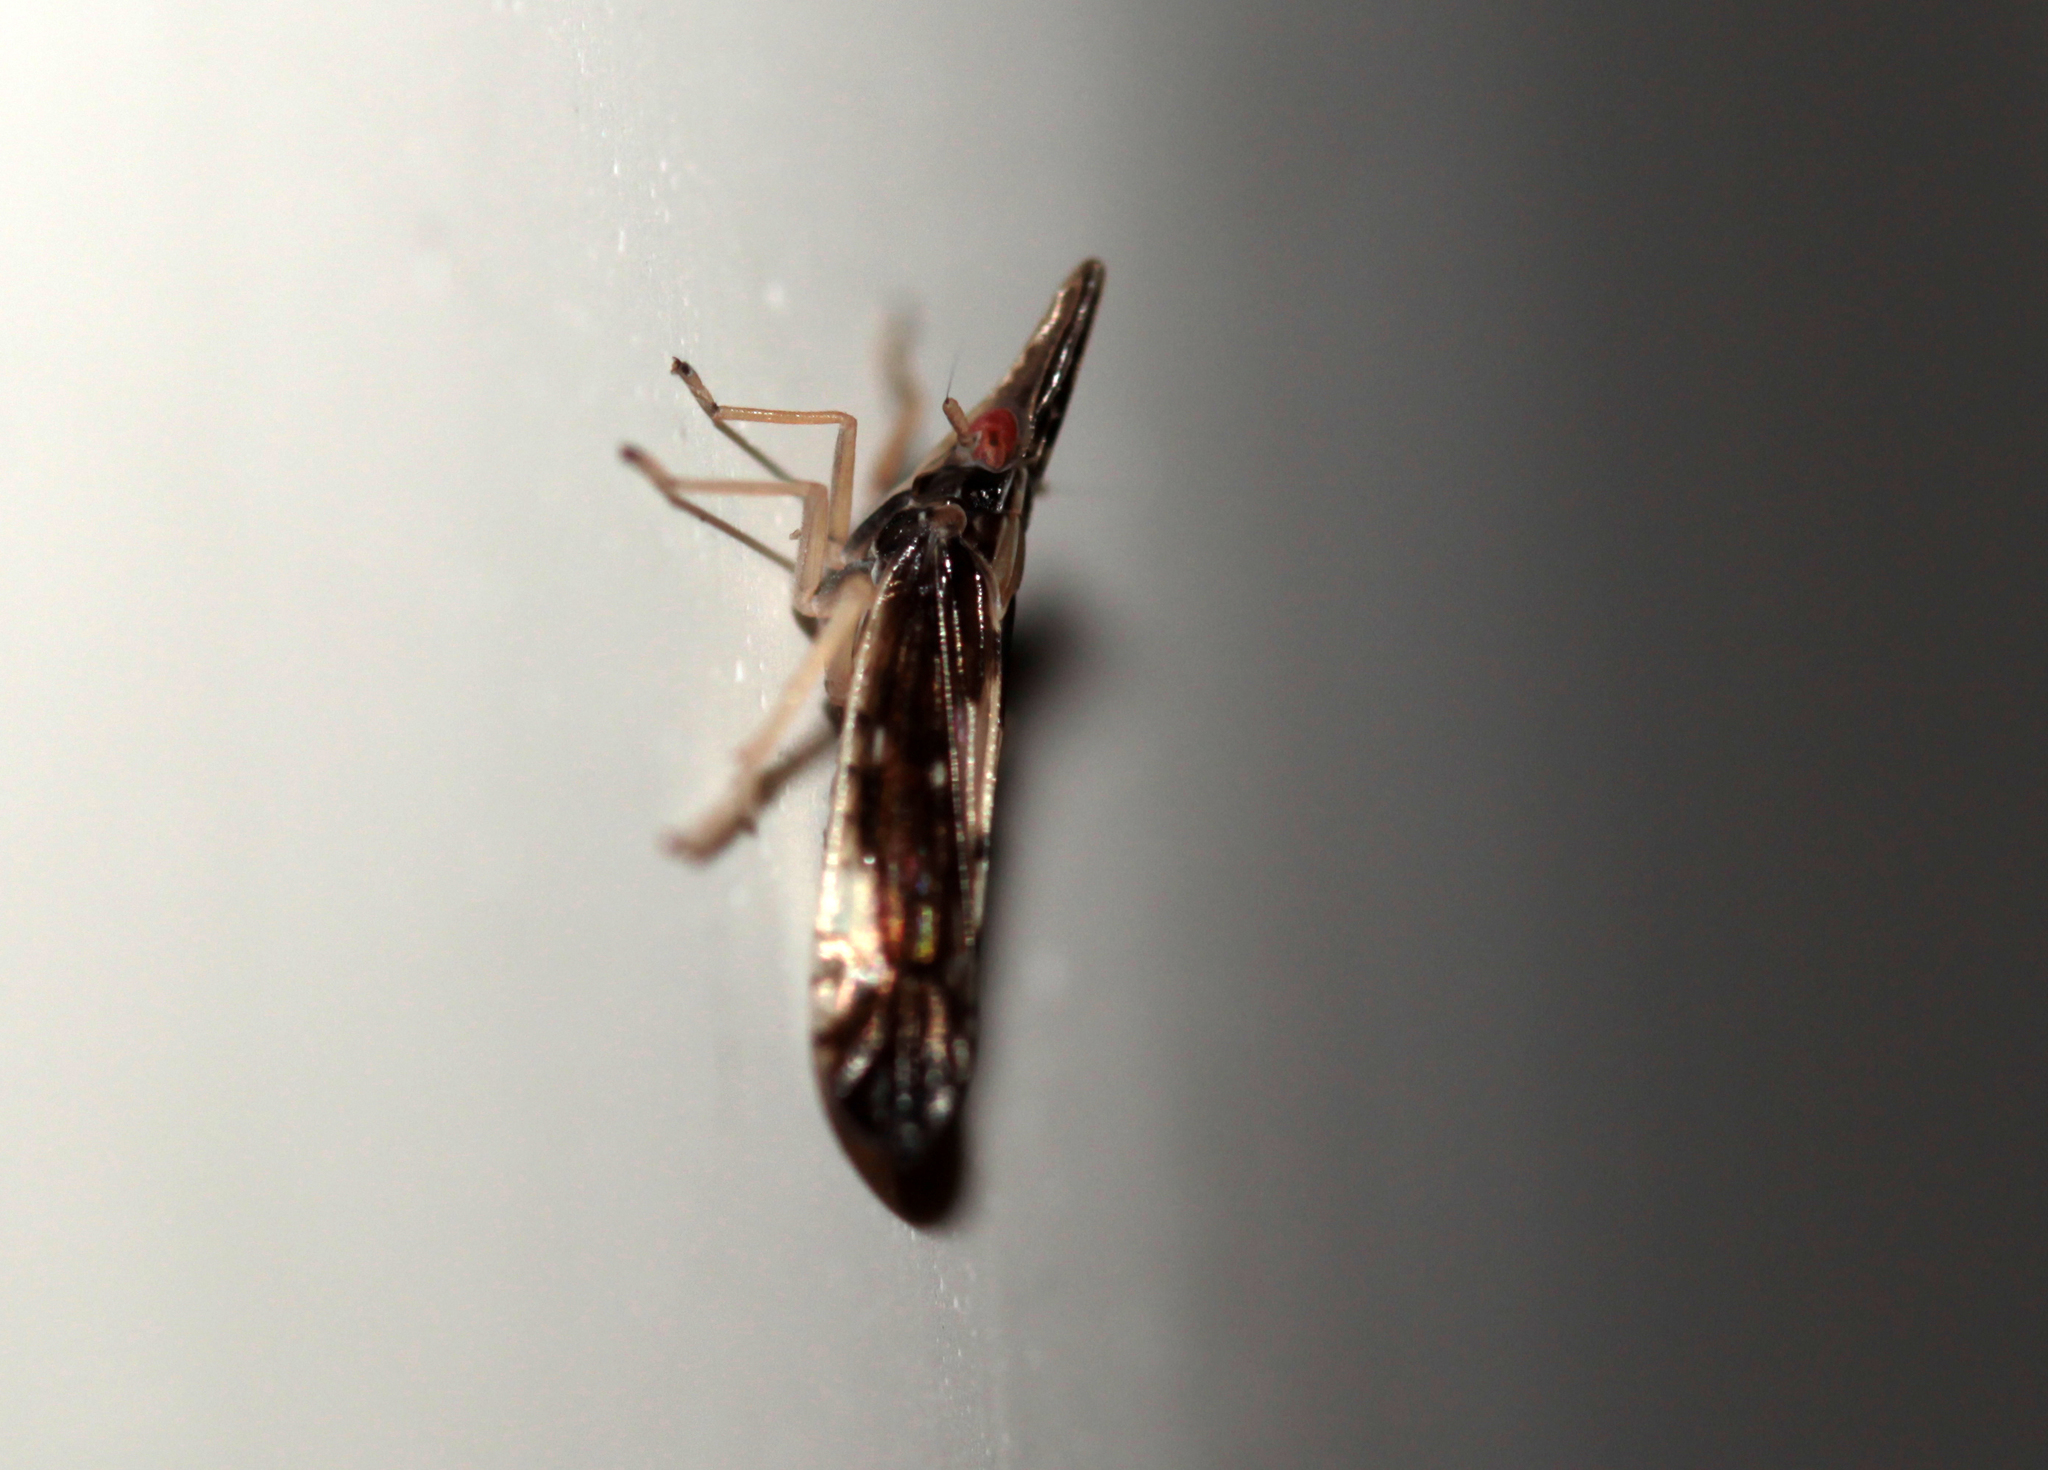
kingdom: Animalia
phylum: Arthropoda
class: Insecta
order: Hemiptera
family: Delphacidae
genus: Terauchiana
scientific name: Terauchiana singularis
